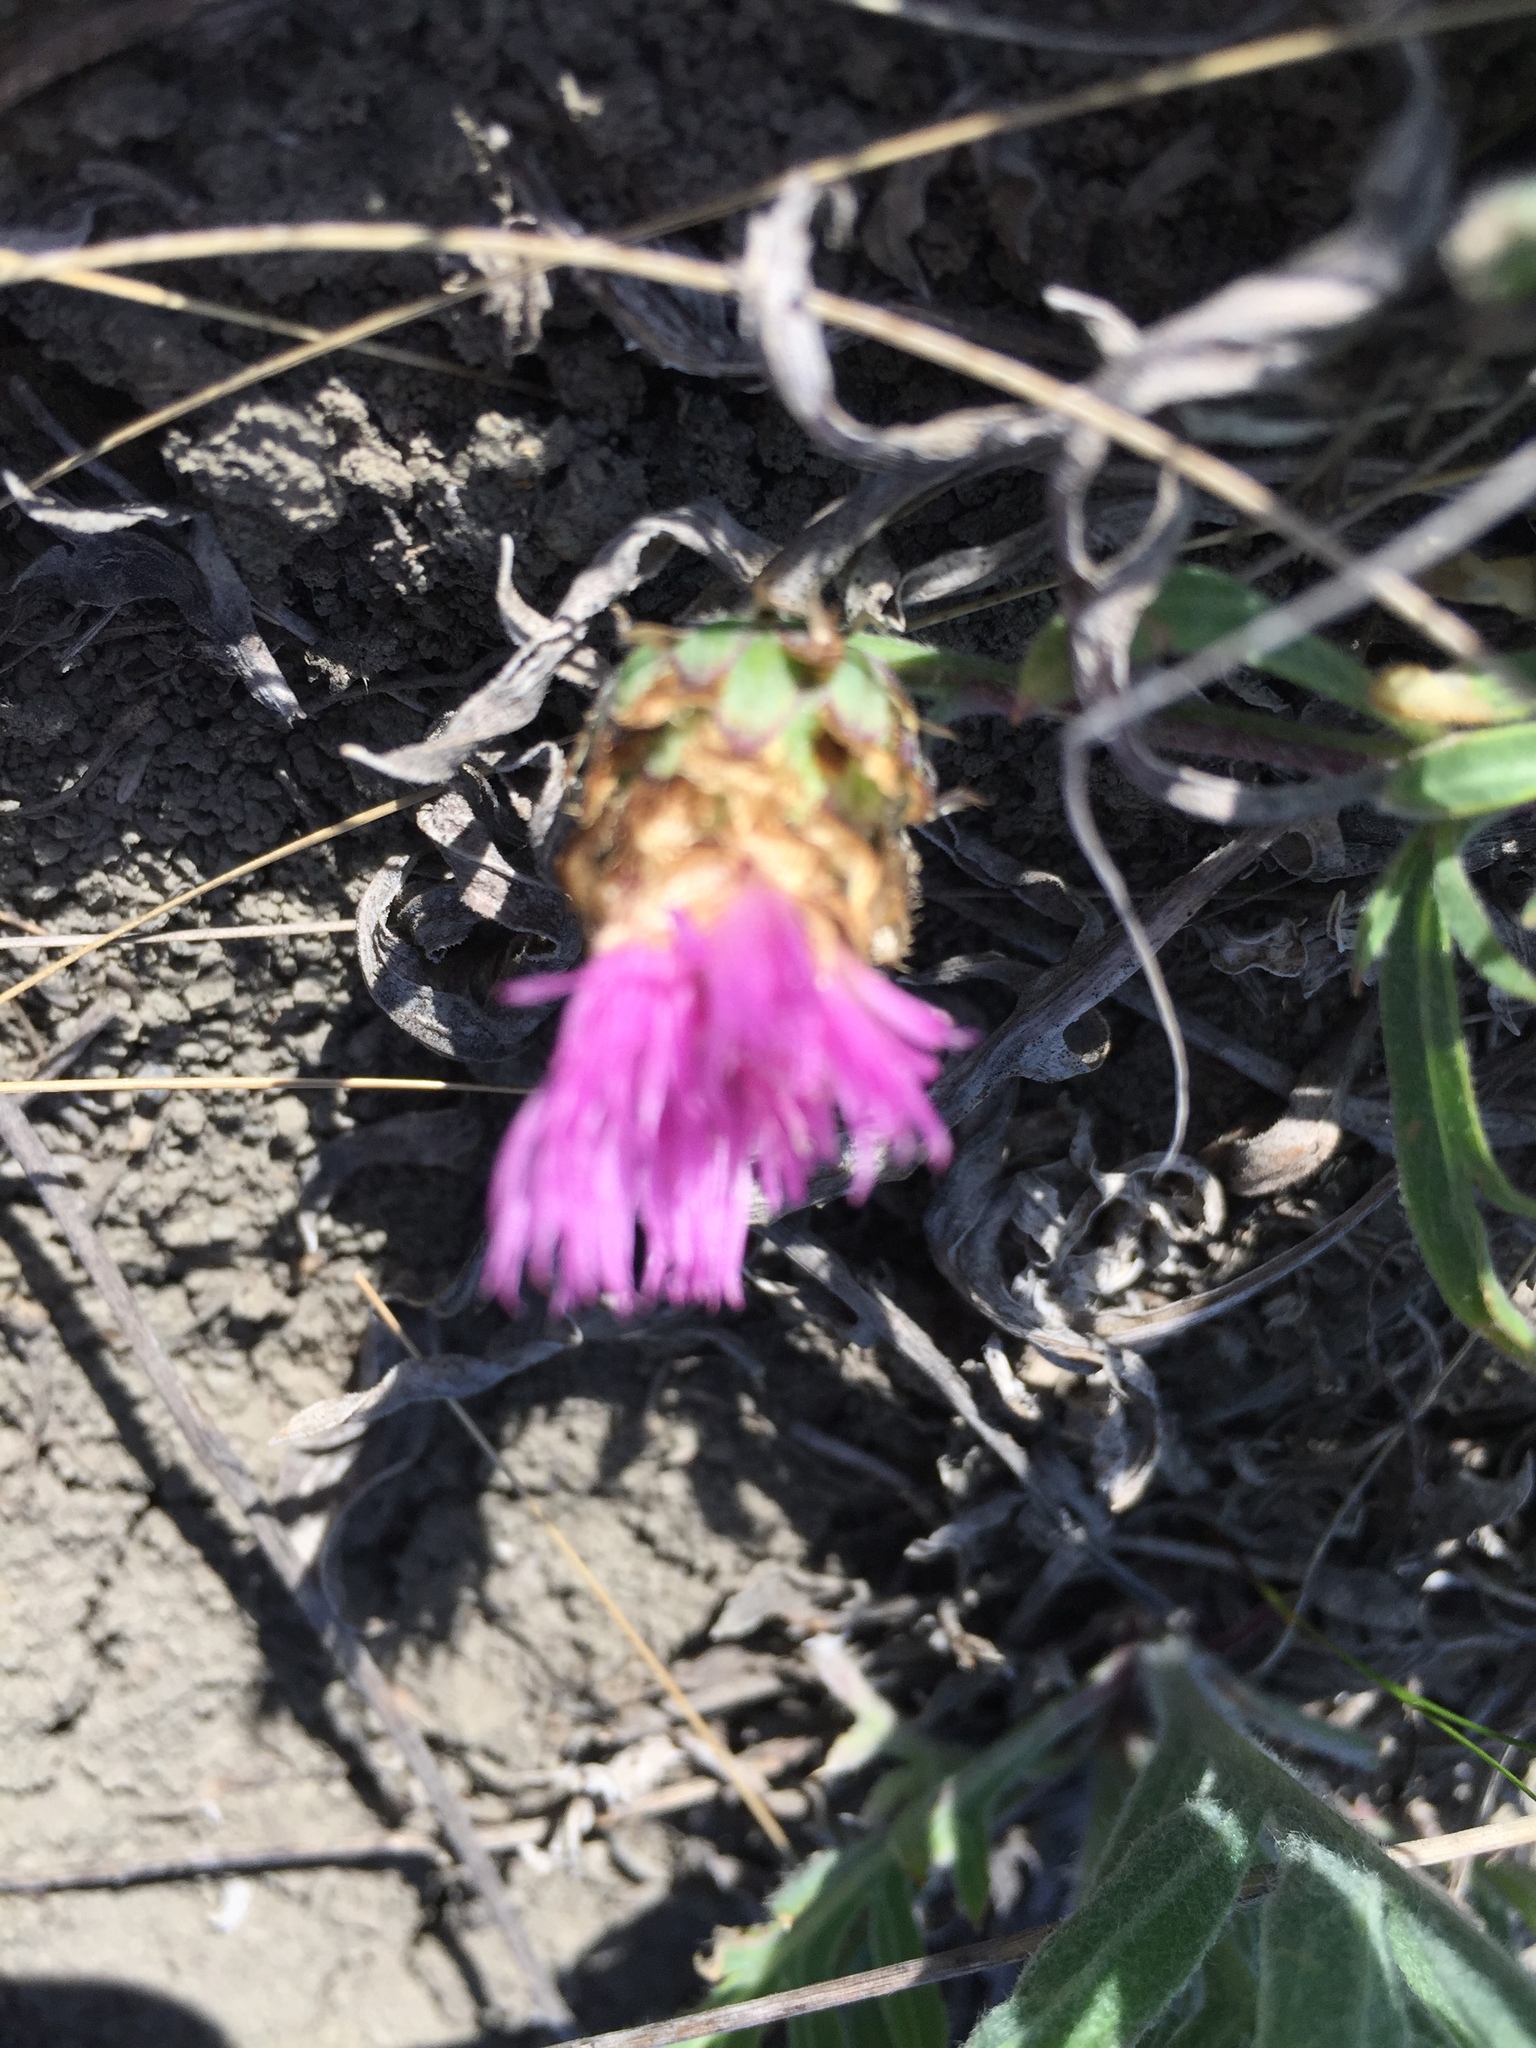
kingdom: Plantae
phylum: Tracheophyta
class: Magnoliopsida
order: Asterales
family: Asteraceae
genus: Psephellus
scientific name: Psephellus marschallianus
